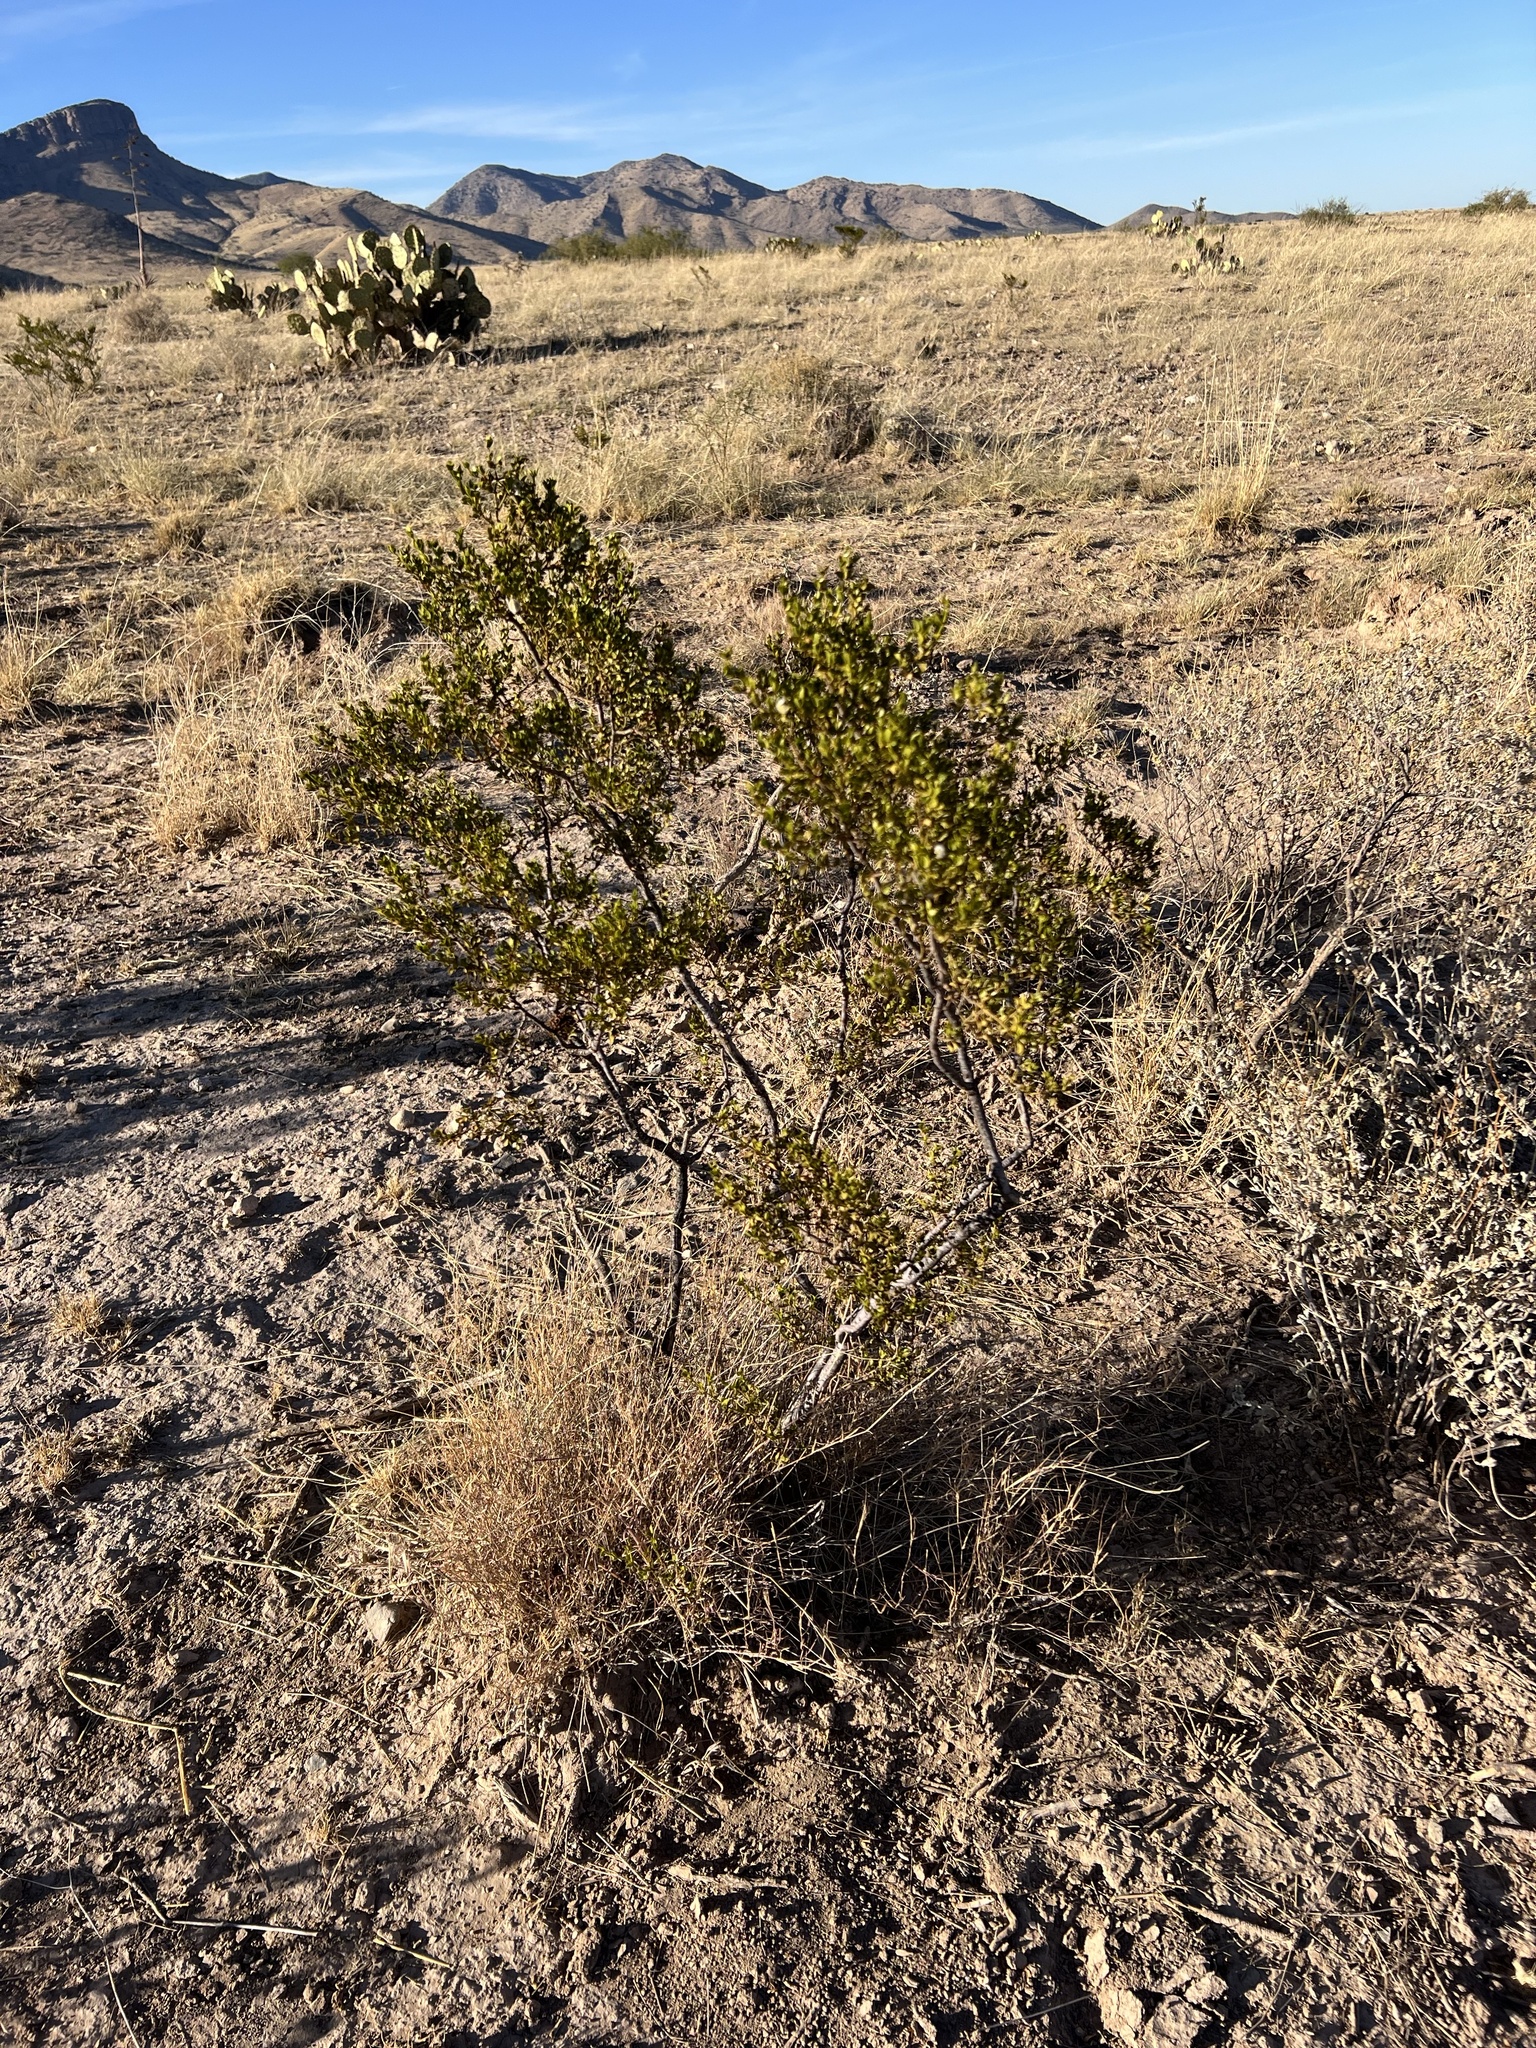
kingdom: Plantae
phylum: Tracheophyta
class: Magnoliopsida
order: Zygophyllales
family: Zygophyllaceae
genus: Larrea
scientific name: Larrea tridentata
